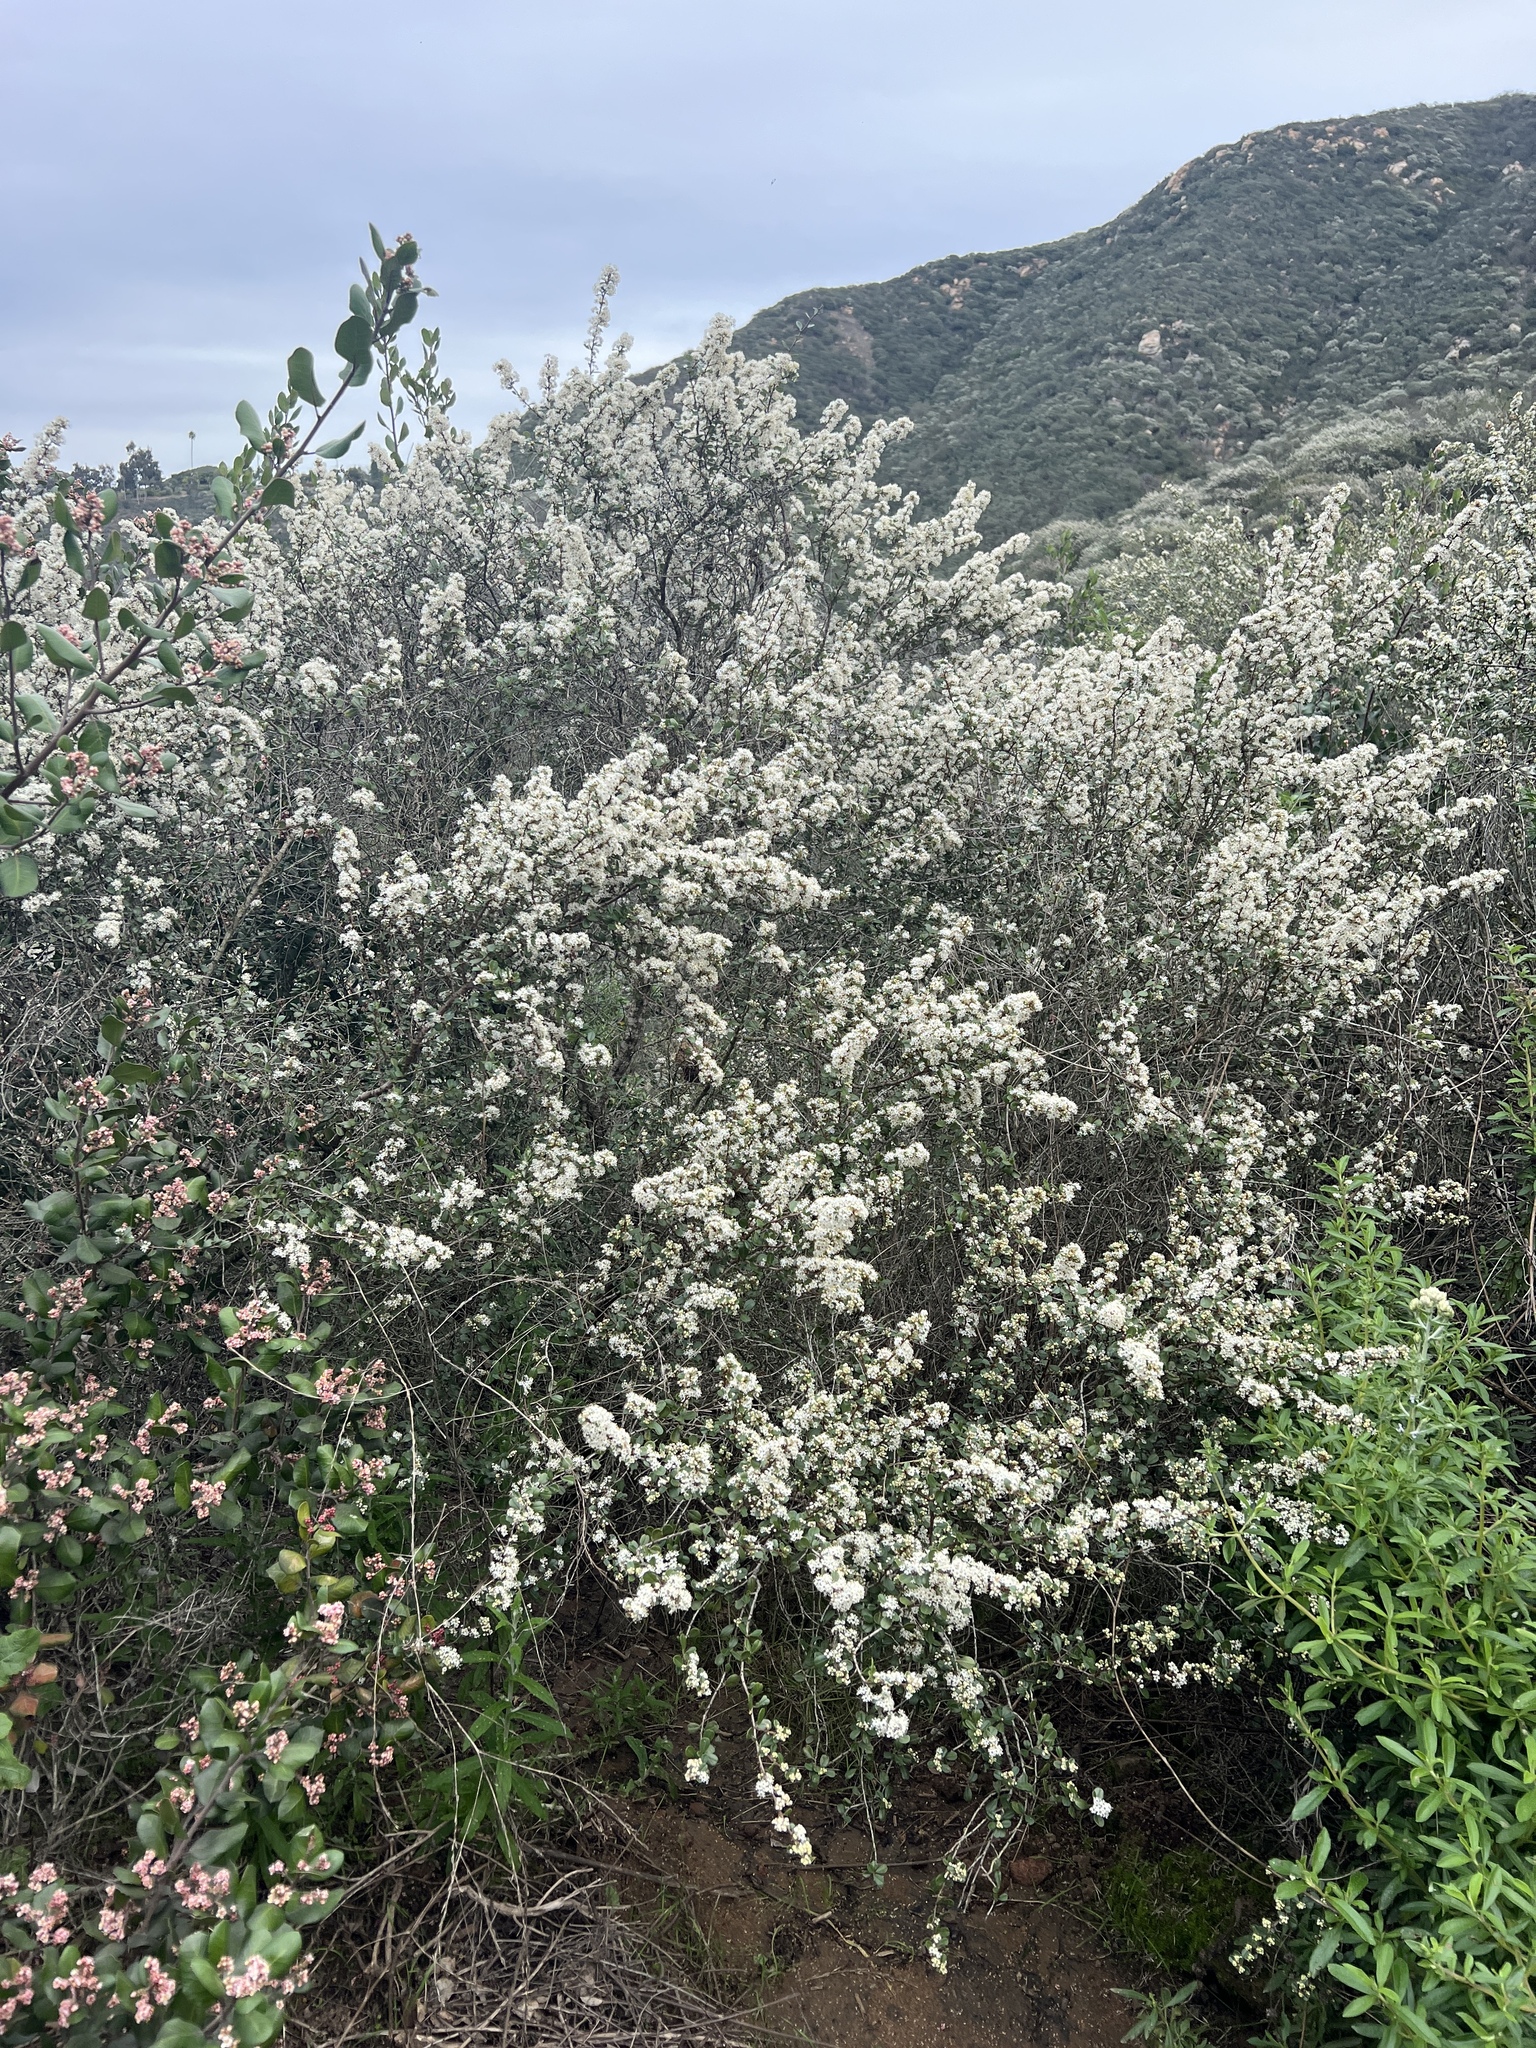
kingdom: Plantae
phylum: Tracheophyta
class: Magnoliopsida
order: Rosales
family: Rhamnaceae
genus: Ceanothus
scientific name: Ceanothus verrucosus
